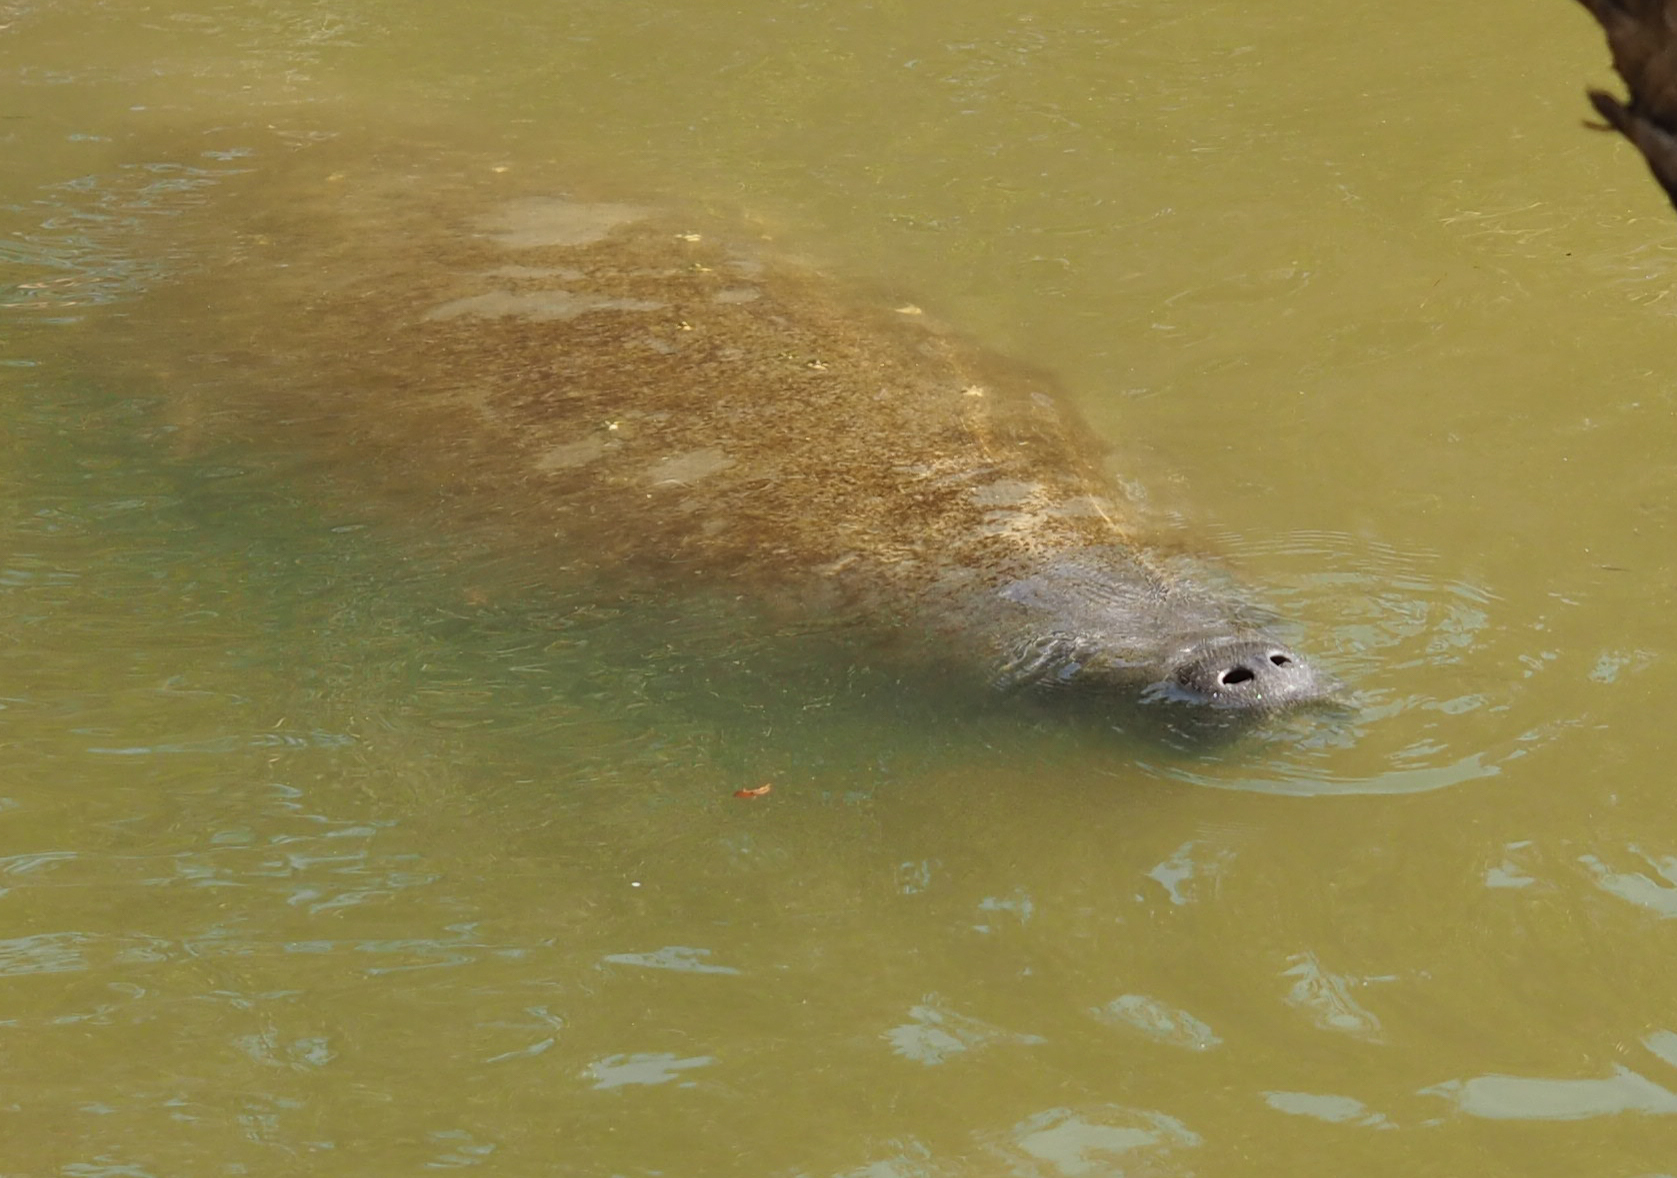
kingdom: Animalia
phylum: Chordata
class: Mammalia
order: Sirenia
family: Trichechidae
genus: Trichechus
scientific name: Trichechus manatus
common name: West indian manatee
